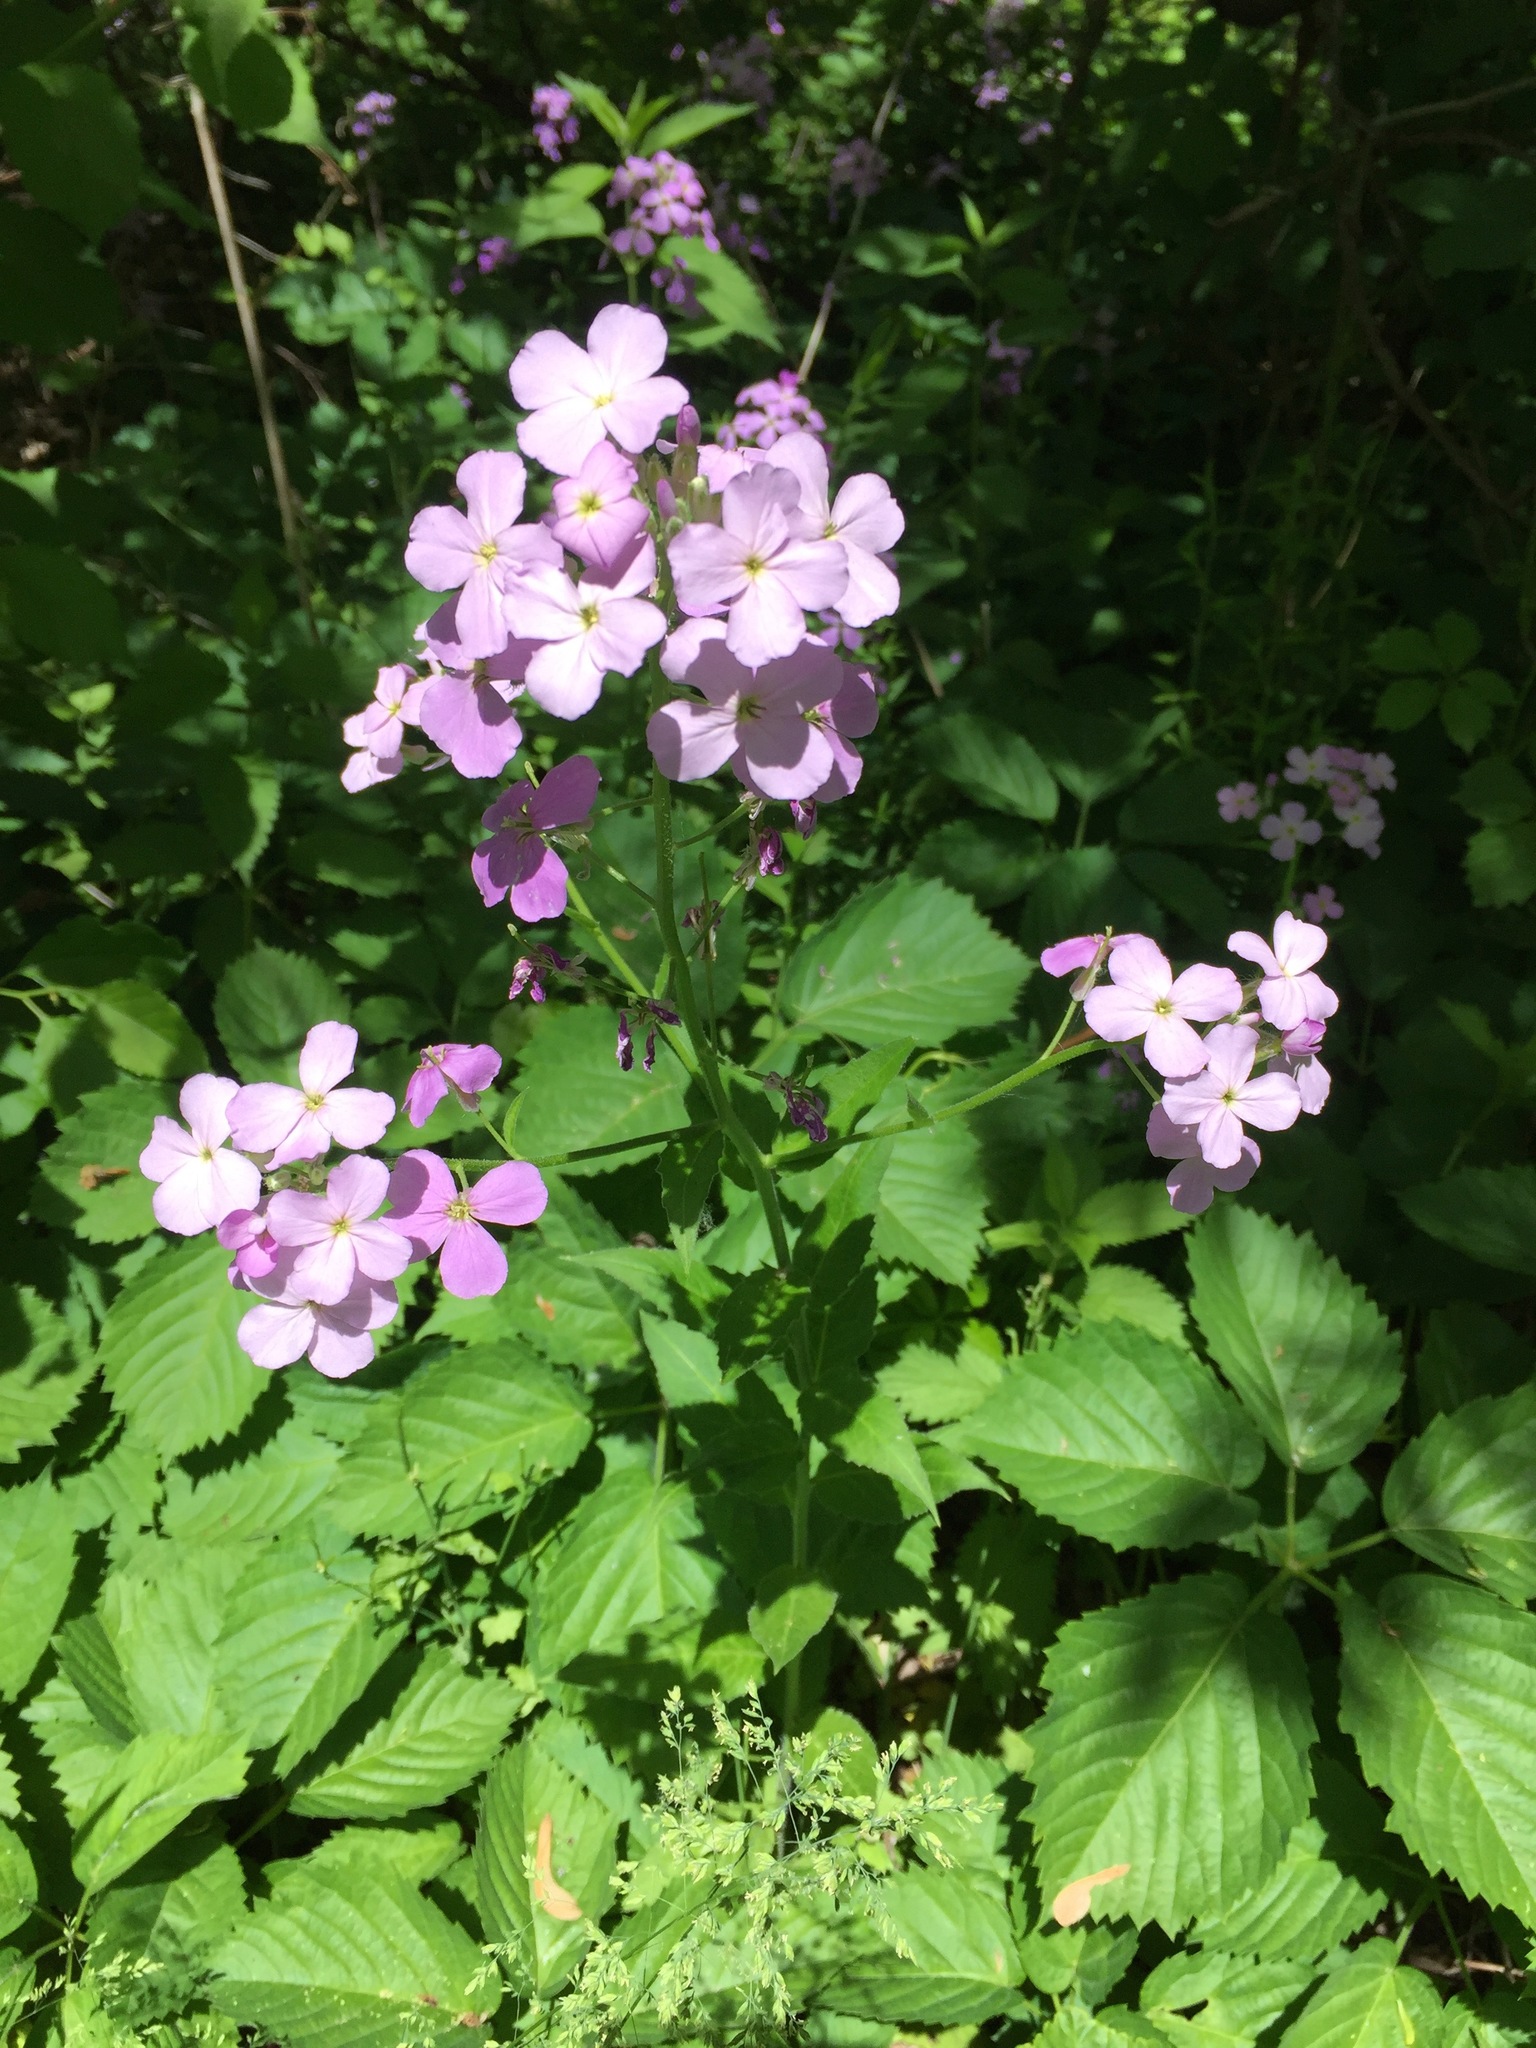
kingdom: Plantae
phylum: Tracheophyta
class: Magnoliopsida
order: Brassicales
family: Brassicaceae
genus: Hesperis
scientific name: Hesperis matronalis
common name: Dame's-violet
